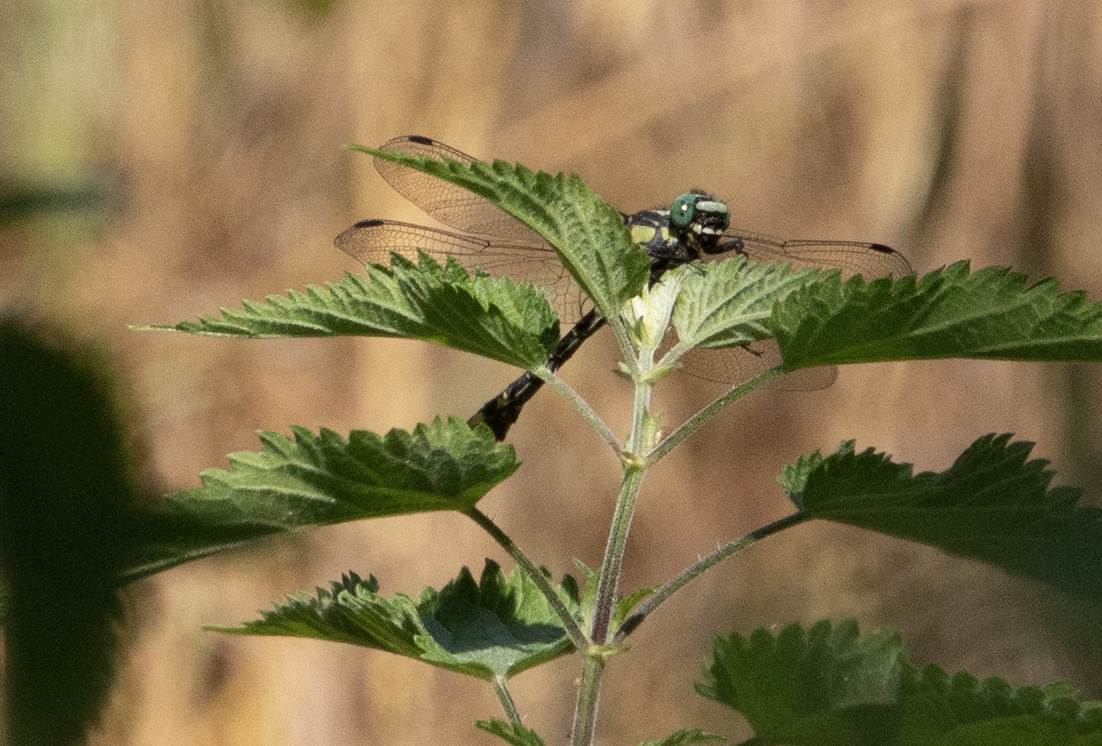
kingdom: Animalia
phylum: Arthropoda
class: Insecta
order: Odonata
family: Gomphidae
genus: Gomphus
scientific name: Gomphus vulgatissimus
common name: Club-tailed dragonfly
